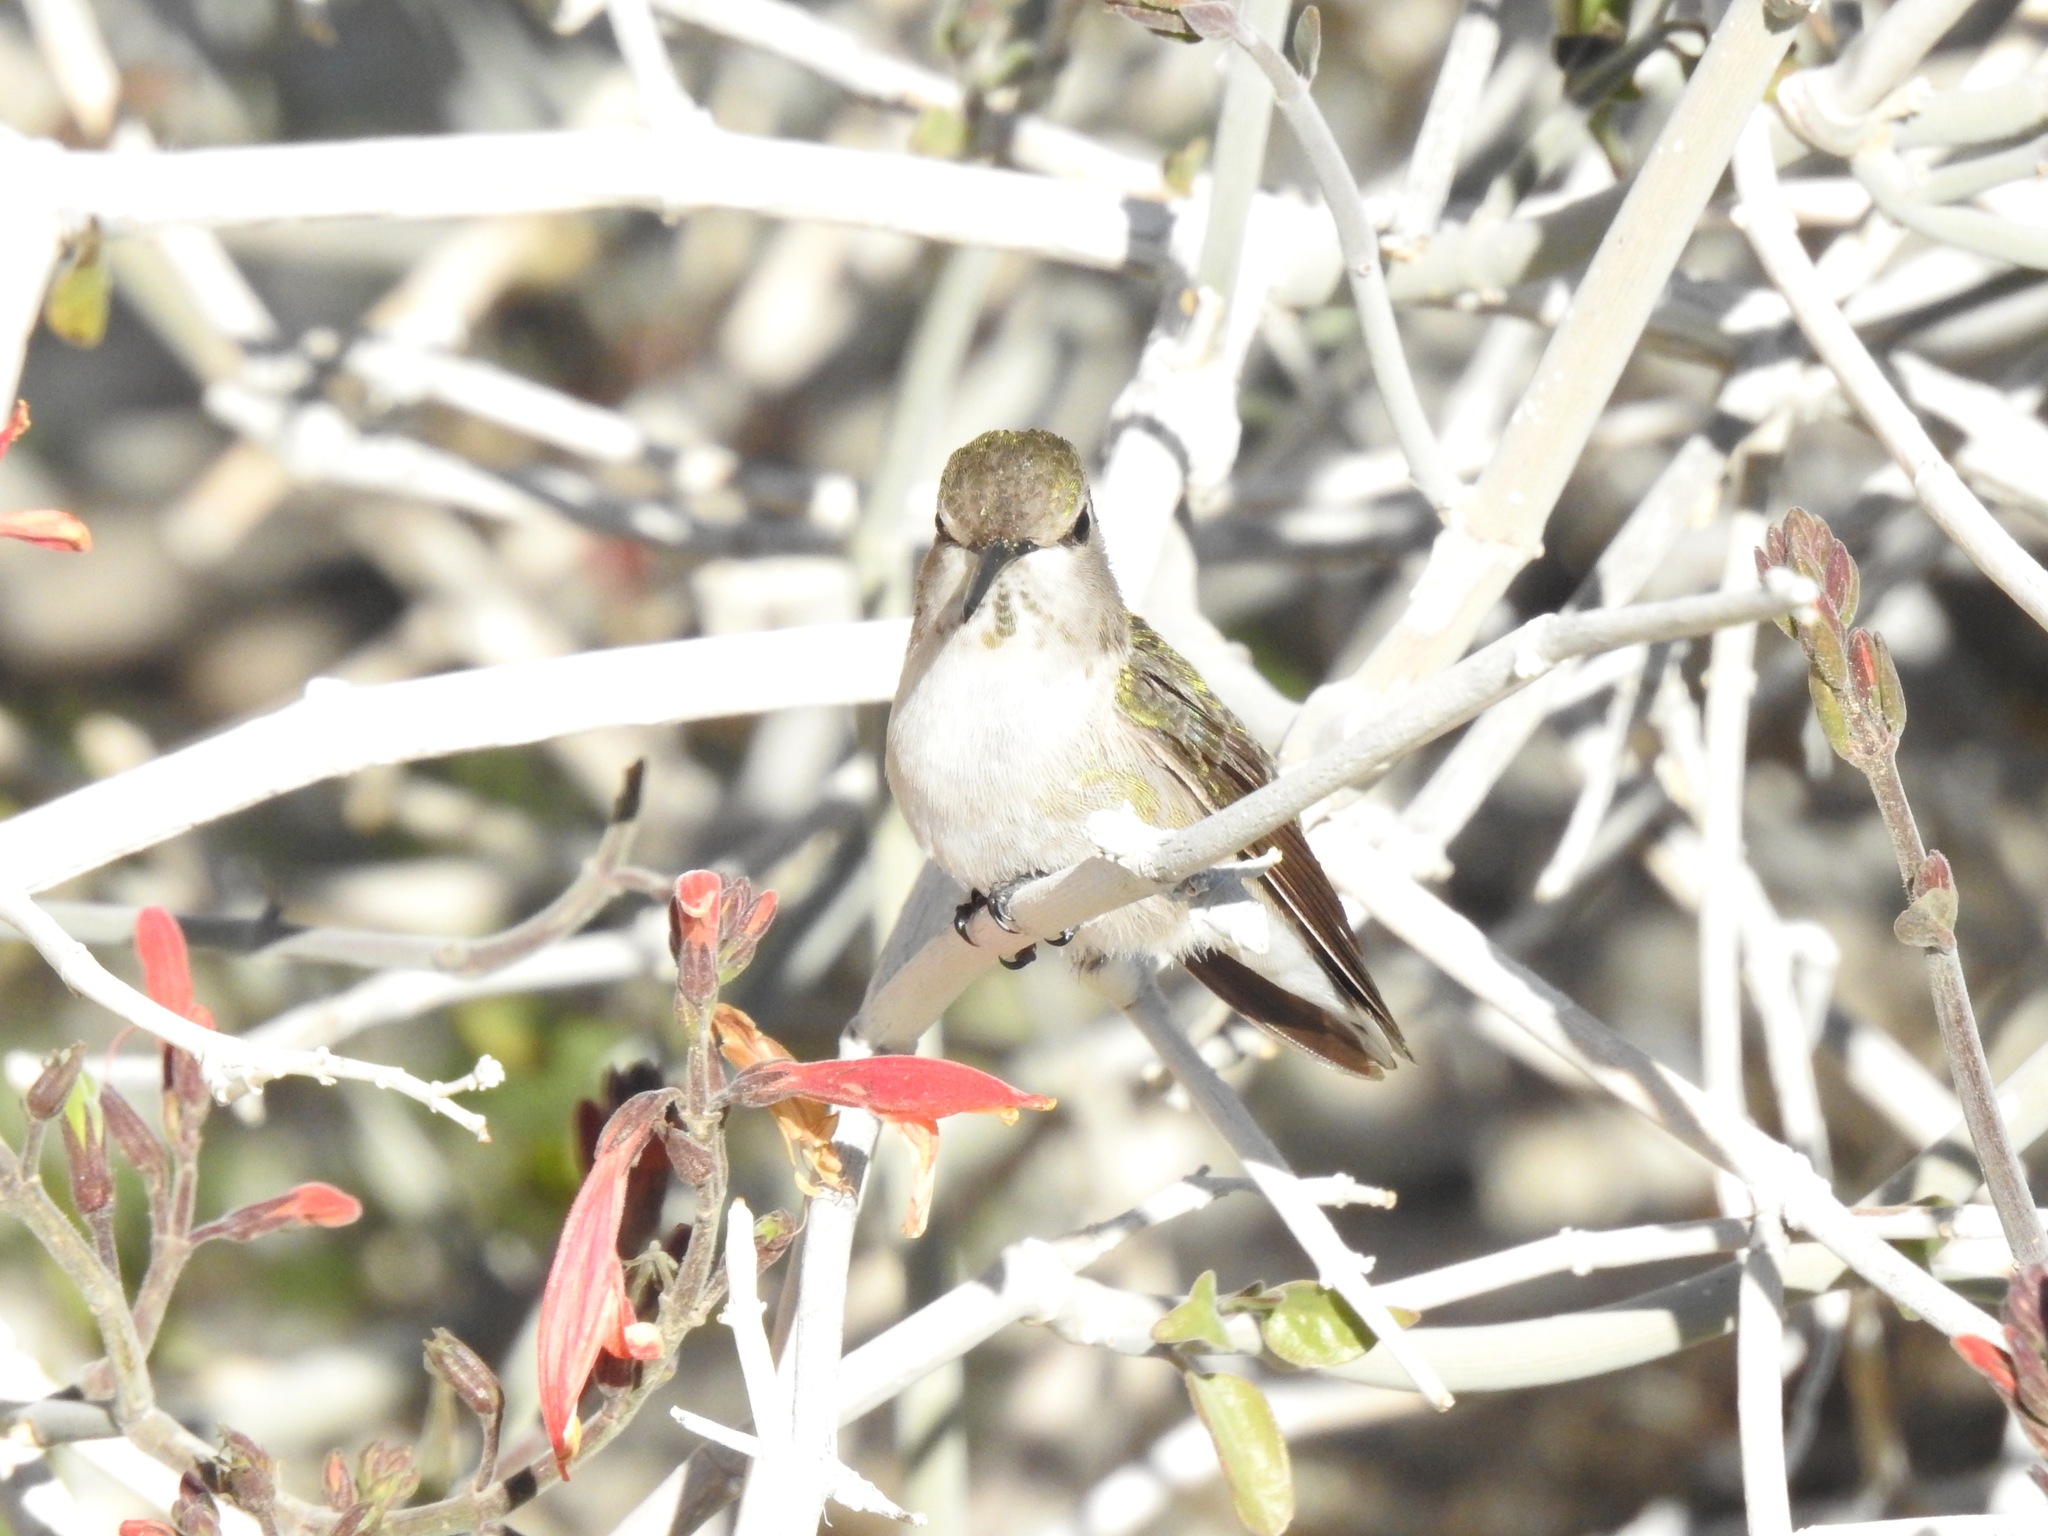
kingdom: Animalia
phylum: Chordata
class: Aves
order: Apodiformes
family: Trochilidae
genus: Calypte
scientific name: Calypte costae
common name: Costa's hummingbird
